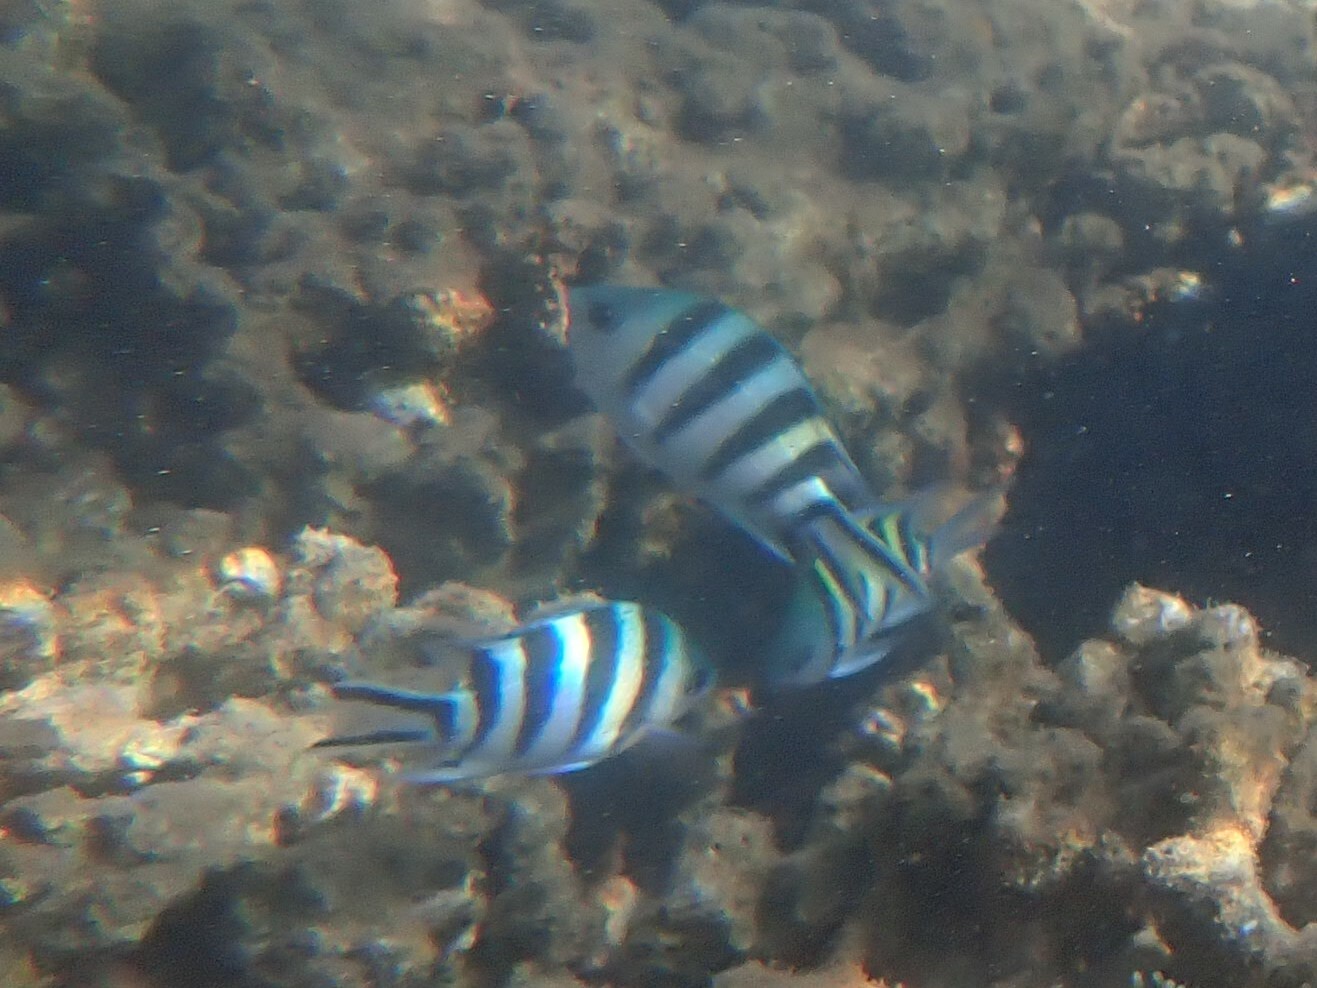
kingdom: Animalia
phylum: Chordata
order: Perciformes
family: Pomacentridae
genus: Abudefduf
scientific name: Abudefduf sexfasciatus
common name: Scissortail sergeant
